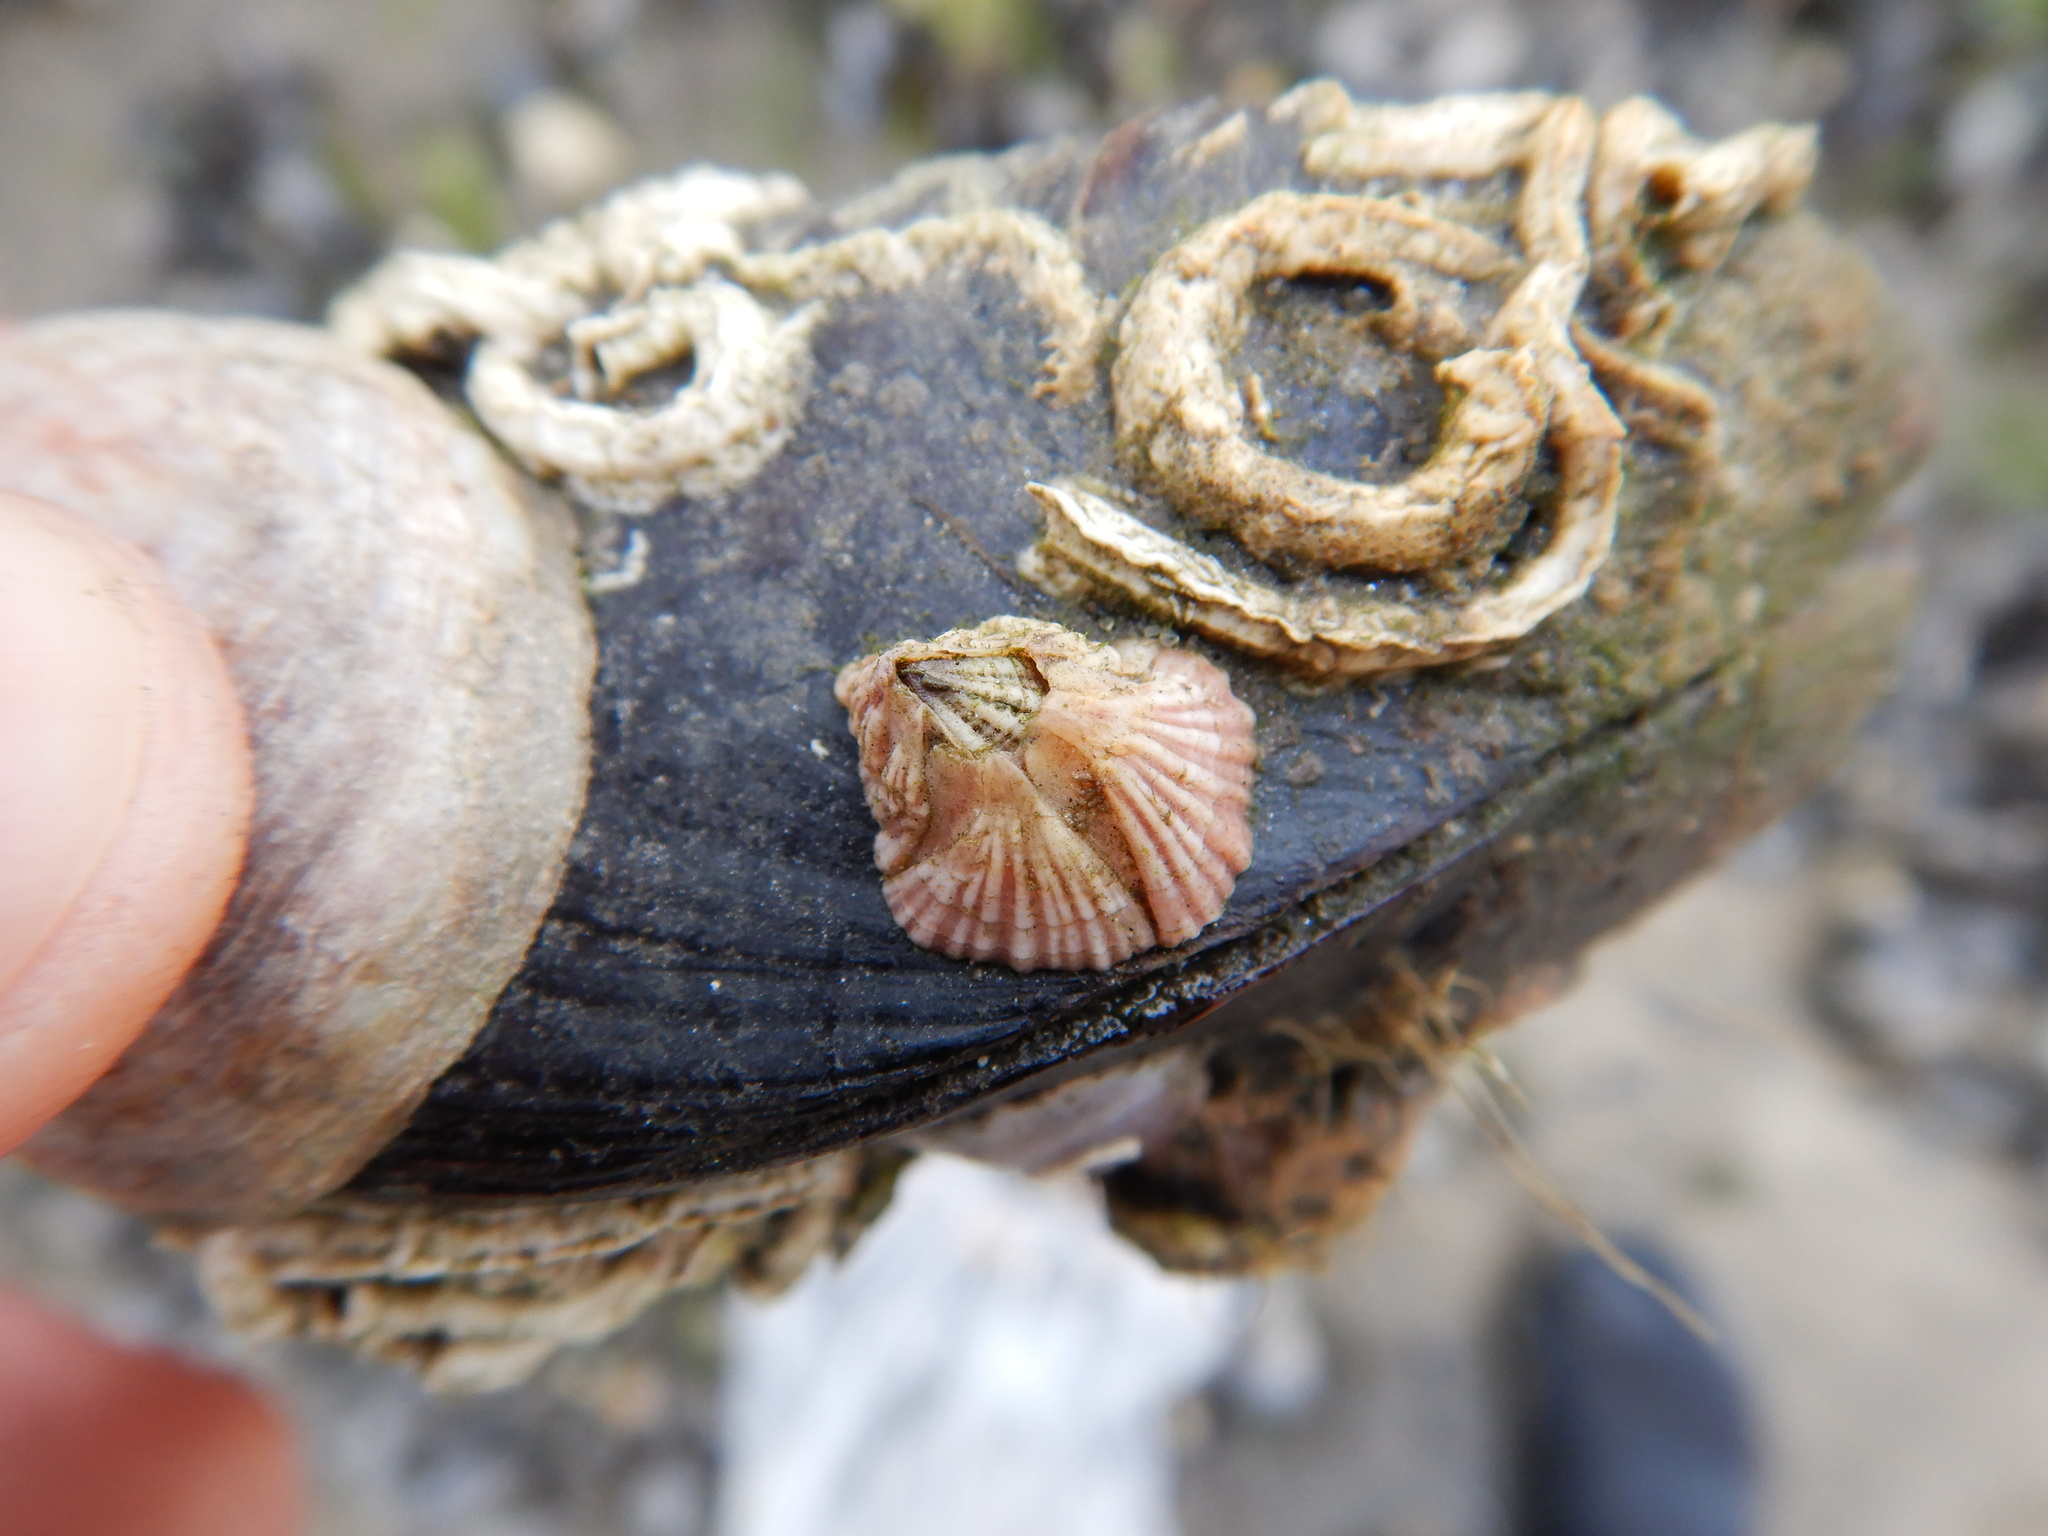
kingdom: Animalia
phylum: Arthropoda
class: Maxillopoda
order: Sessilia
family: Balanidae
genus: Balanus
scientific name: Balanus trigonus
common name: Triangle barnacle
